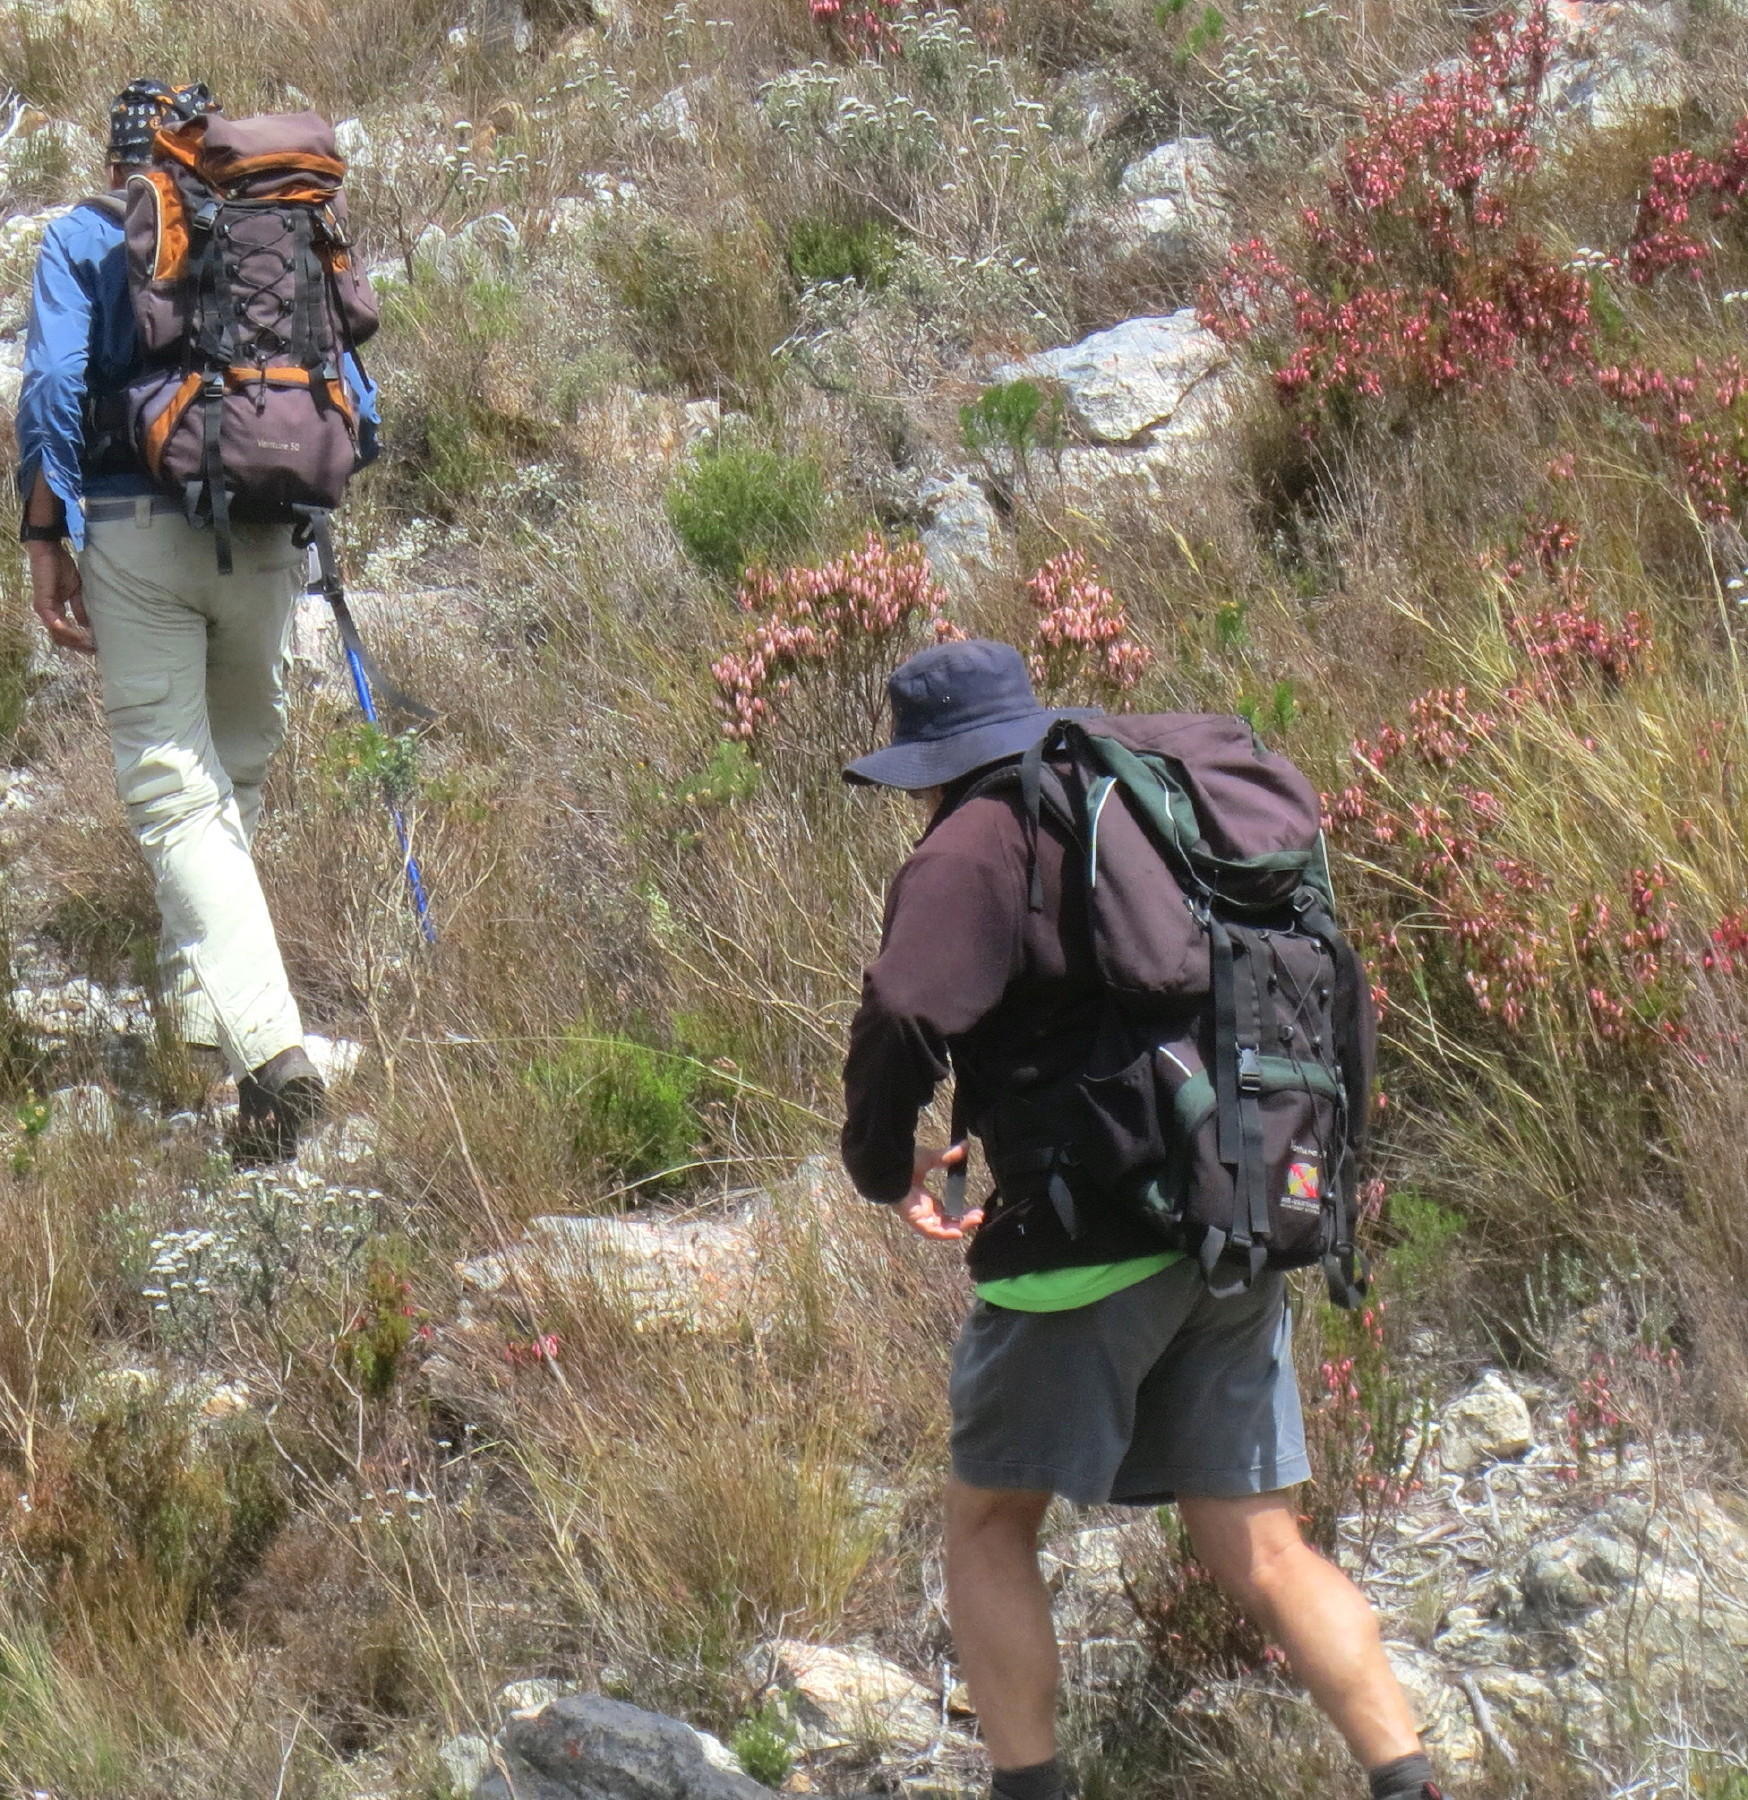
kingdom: Plantae
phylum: Tracheophyta
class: Magnoliopsida
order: Ericales
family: Ericaceae
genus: Erica
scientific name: Erica plukenetii
